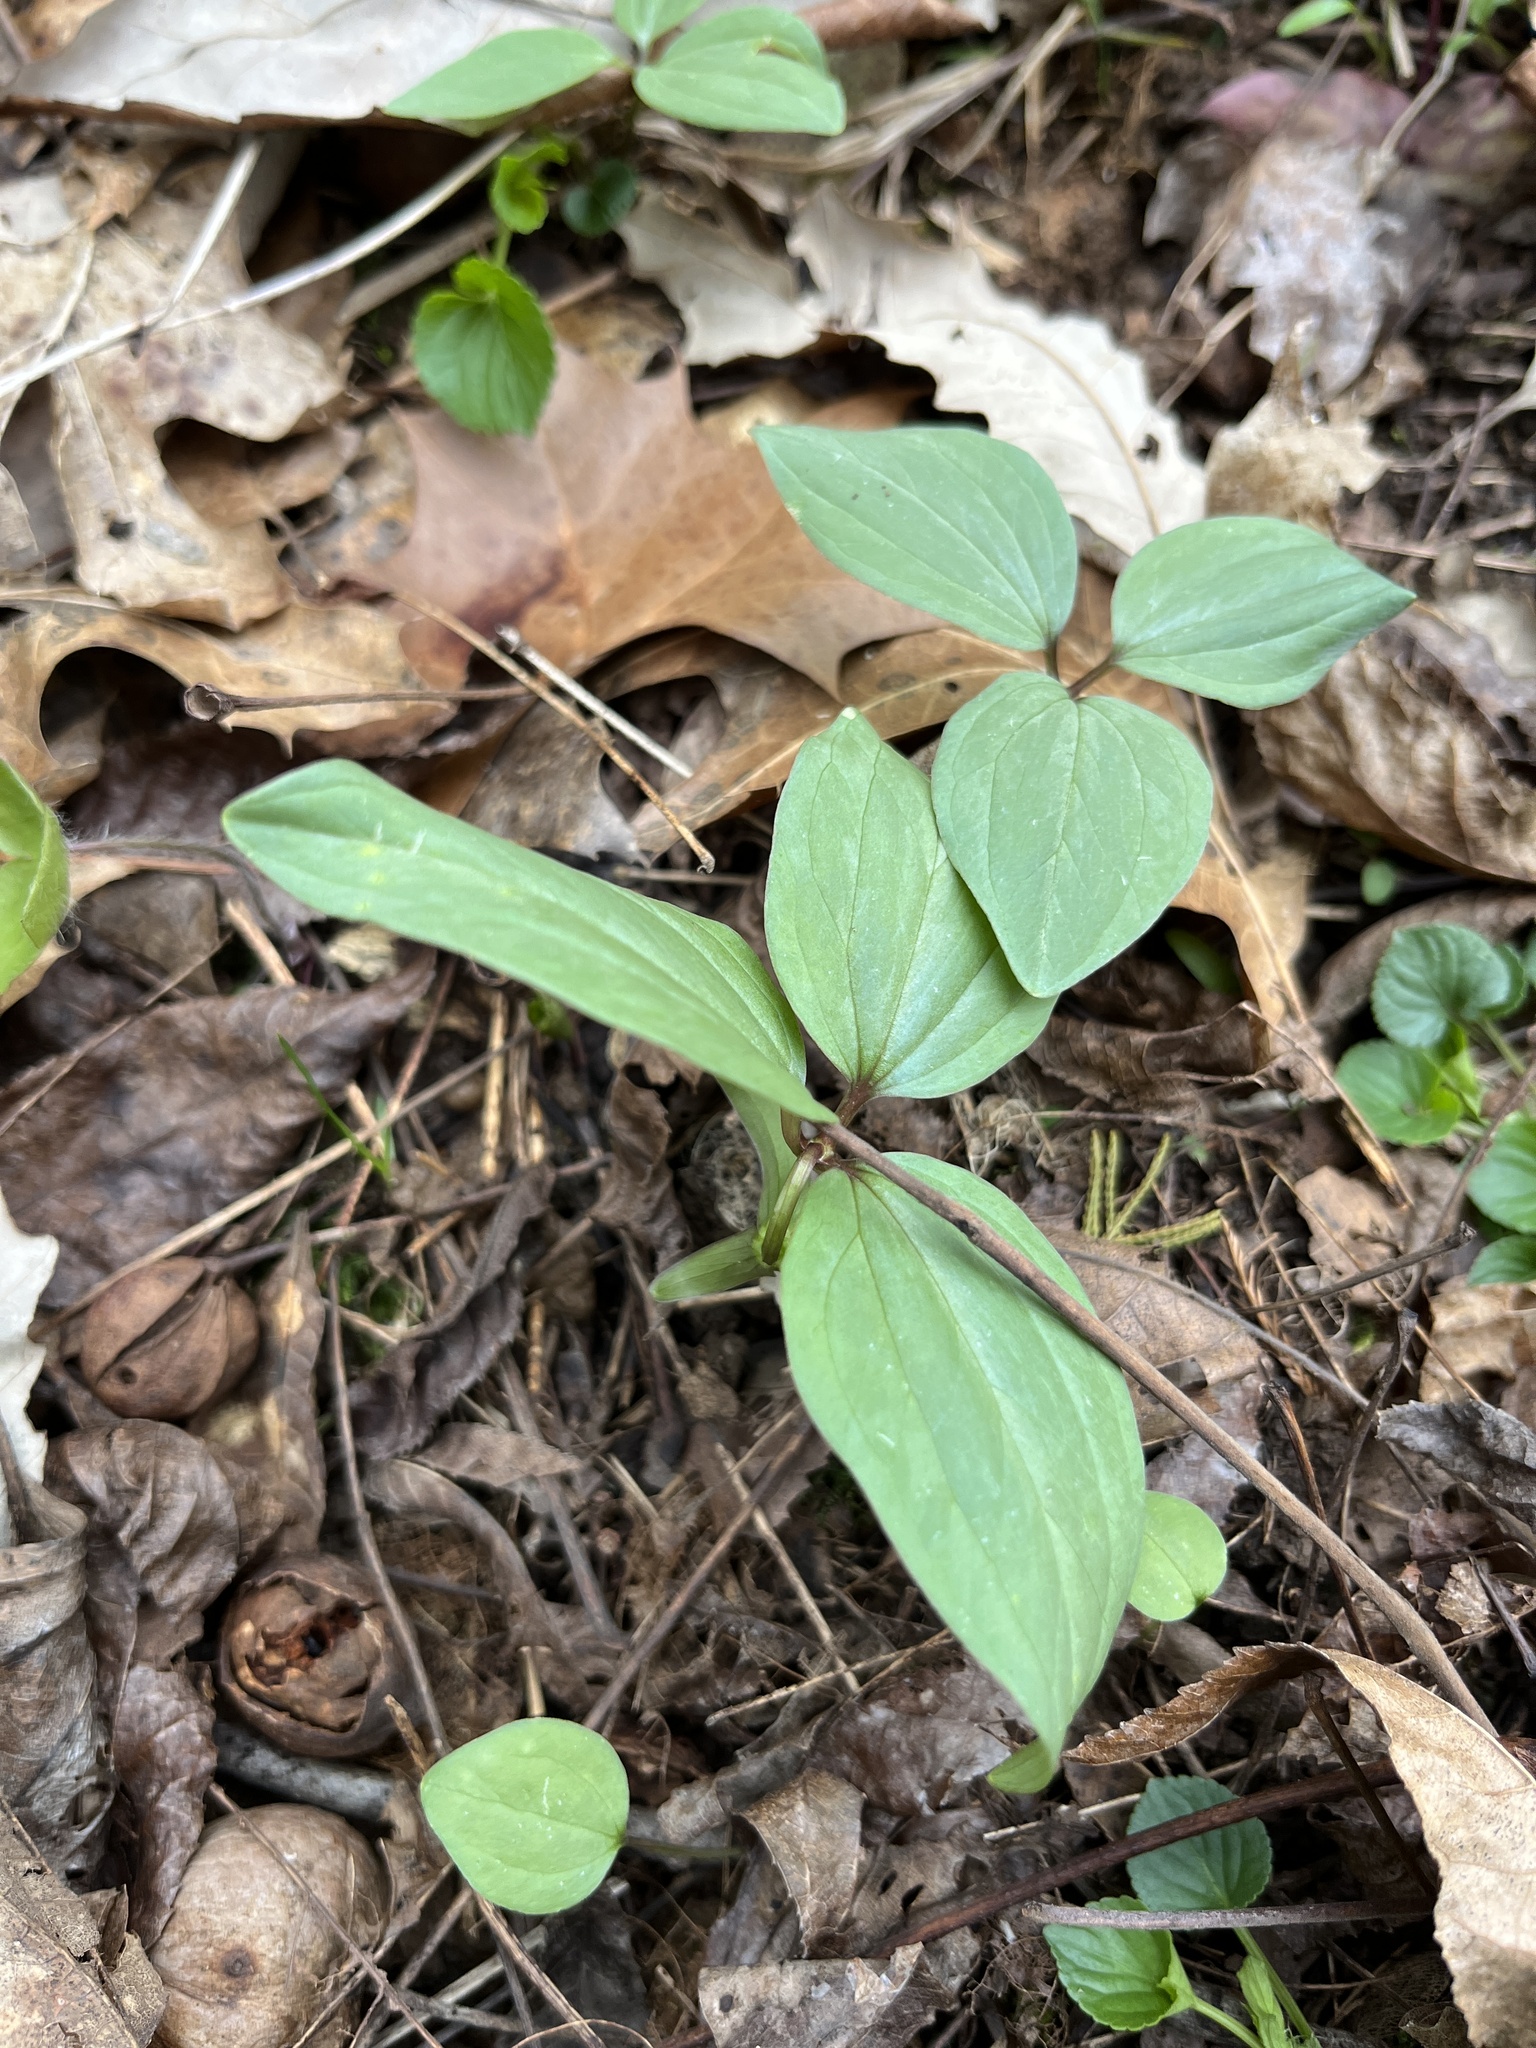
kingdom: Plantae
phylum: Tracheophyta
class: Liliopsida
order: Liliales
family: Melanthiaceae
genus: Trillium
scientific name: Trillium nivale
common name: Dwarf white trillium
